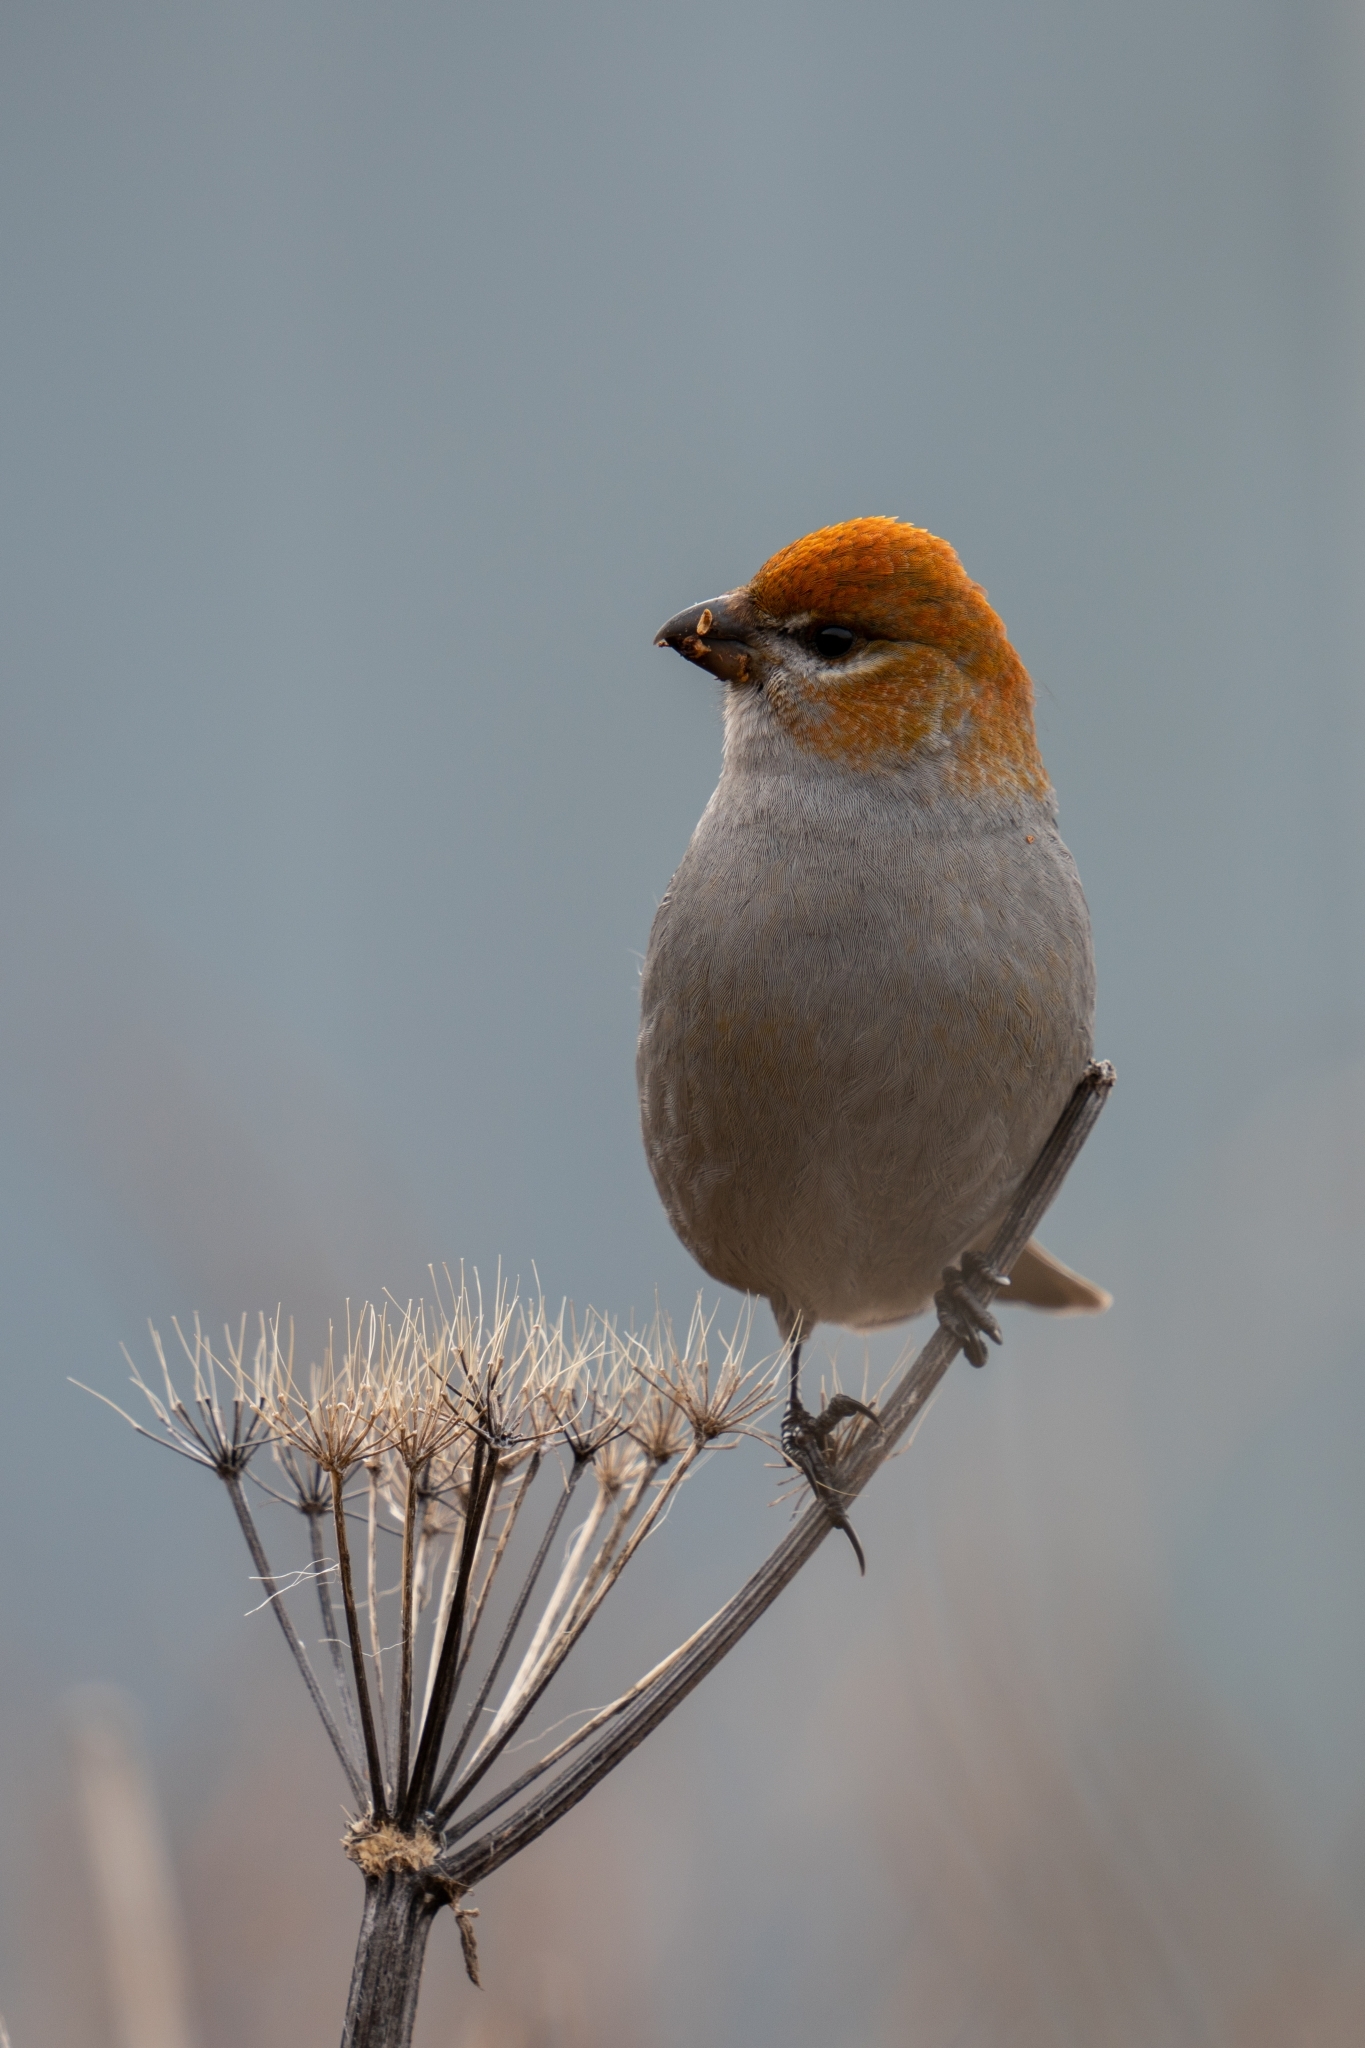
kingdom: Animalia
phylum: Chordata
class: Aves
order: Passeriformes
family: Fringillidae
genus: Pinicola
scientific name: Pinicola enucleator
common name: Pine grosbeak
